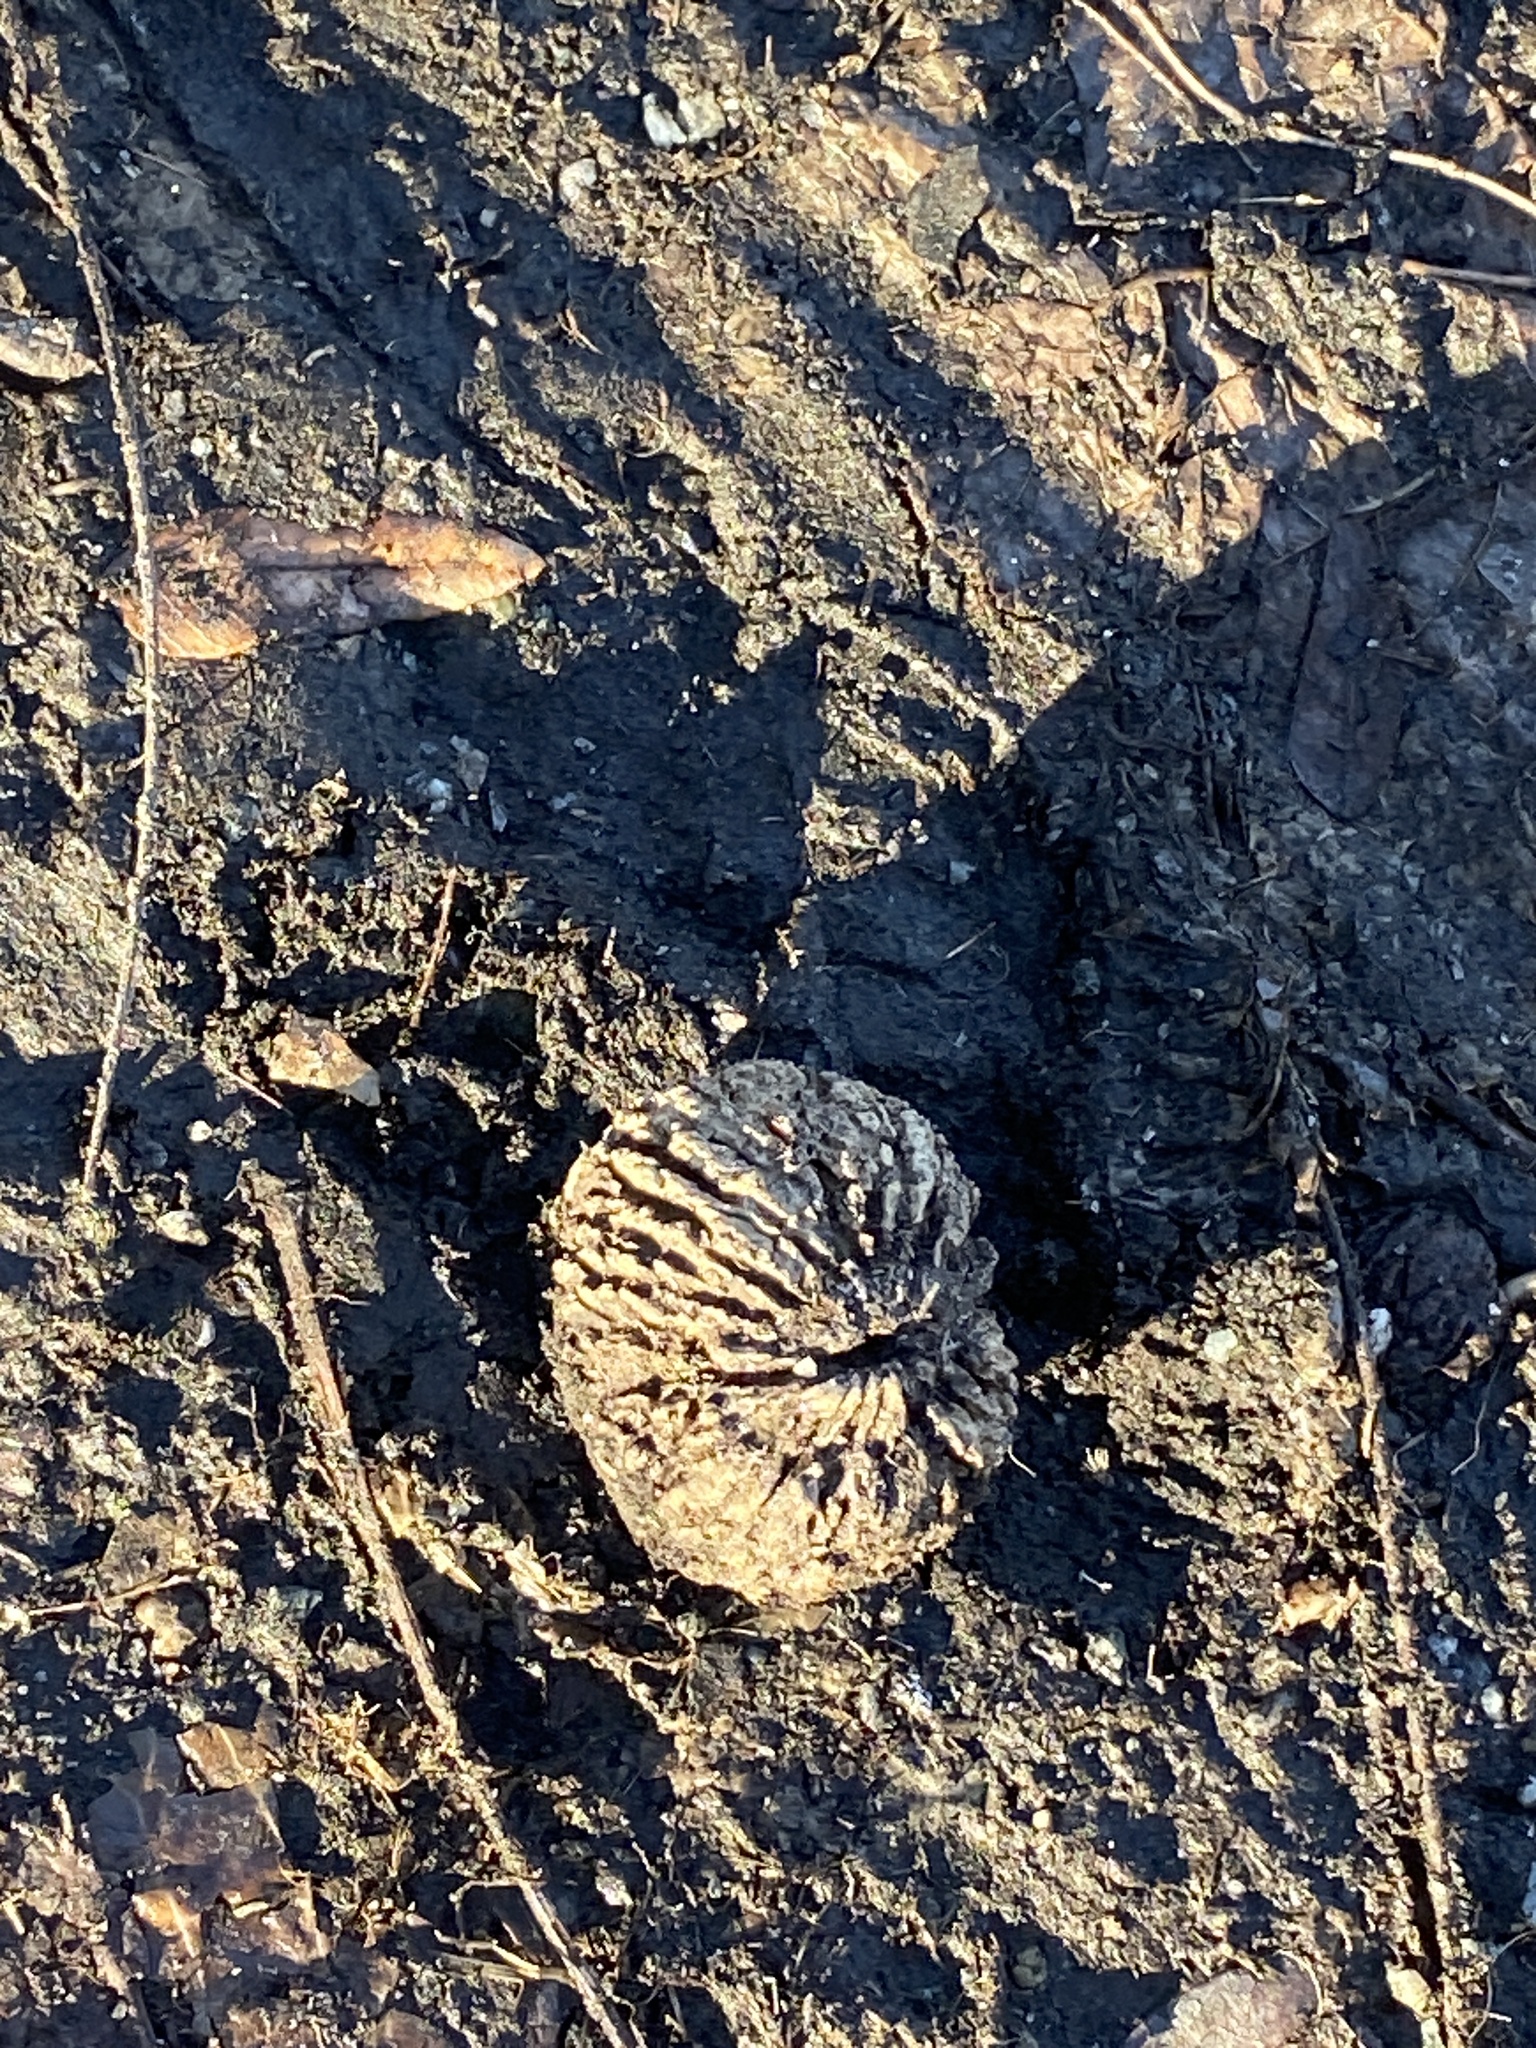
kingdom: Plantae
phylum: Tracheophyta
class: Magnoliopsida
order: Fagales
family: Juglandaceae
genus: Juglans
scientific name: Juglans nigra
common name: Black walnut
